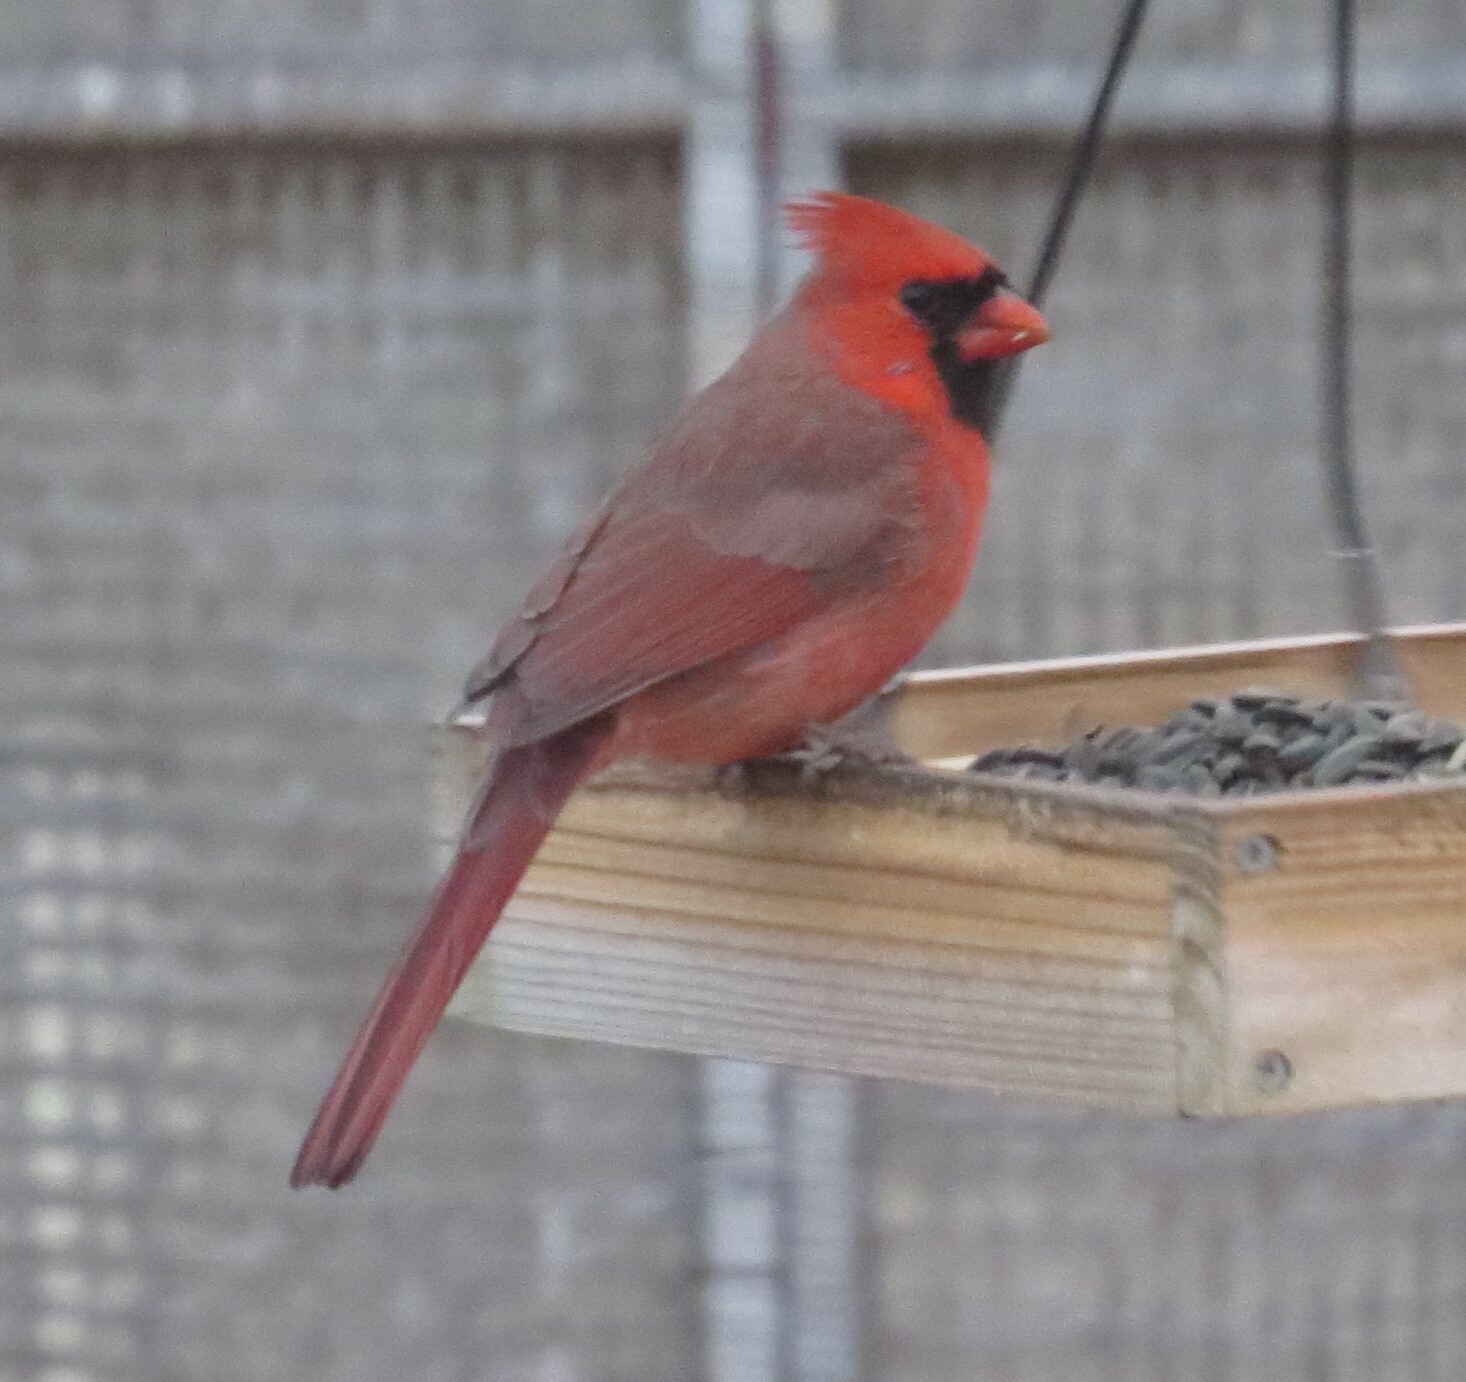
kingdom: Animalia
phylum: Chordata
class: Aves
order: Passeriformes
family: Cardinalidae
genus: Cardinalis
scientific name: Cardinalis cardinalis
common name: Northern cardinal
